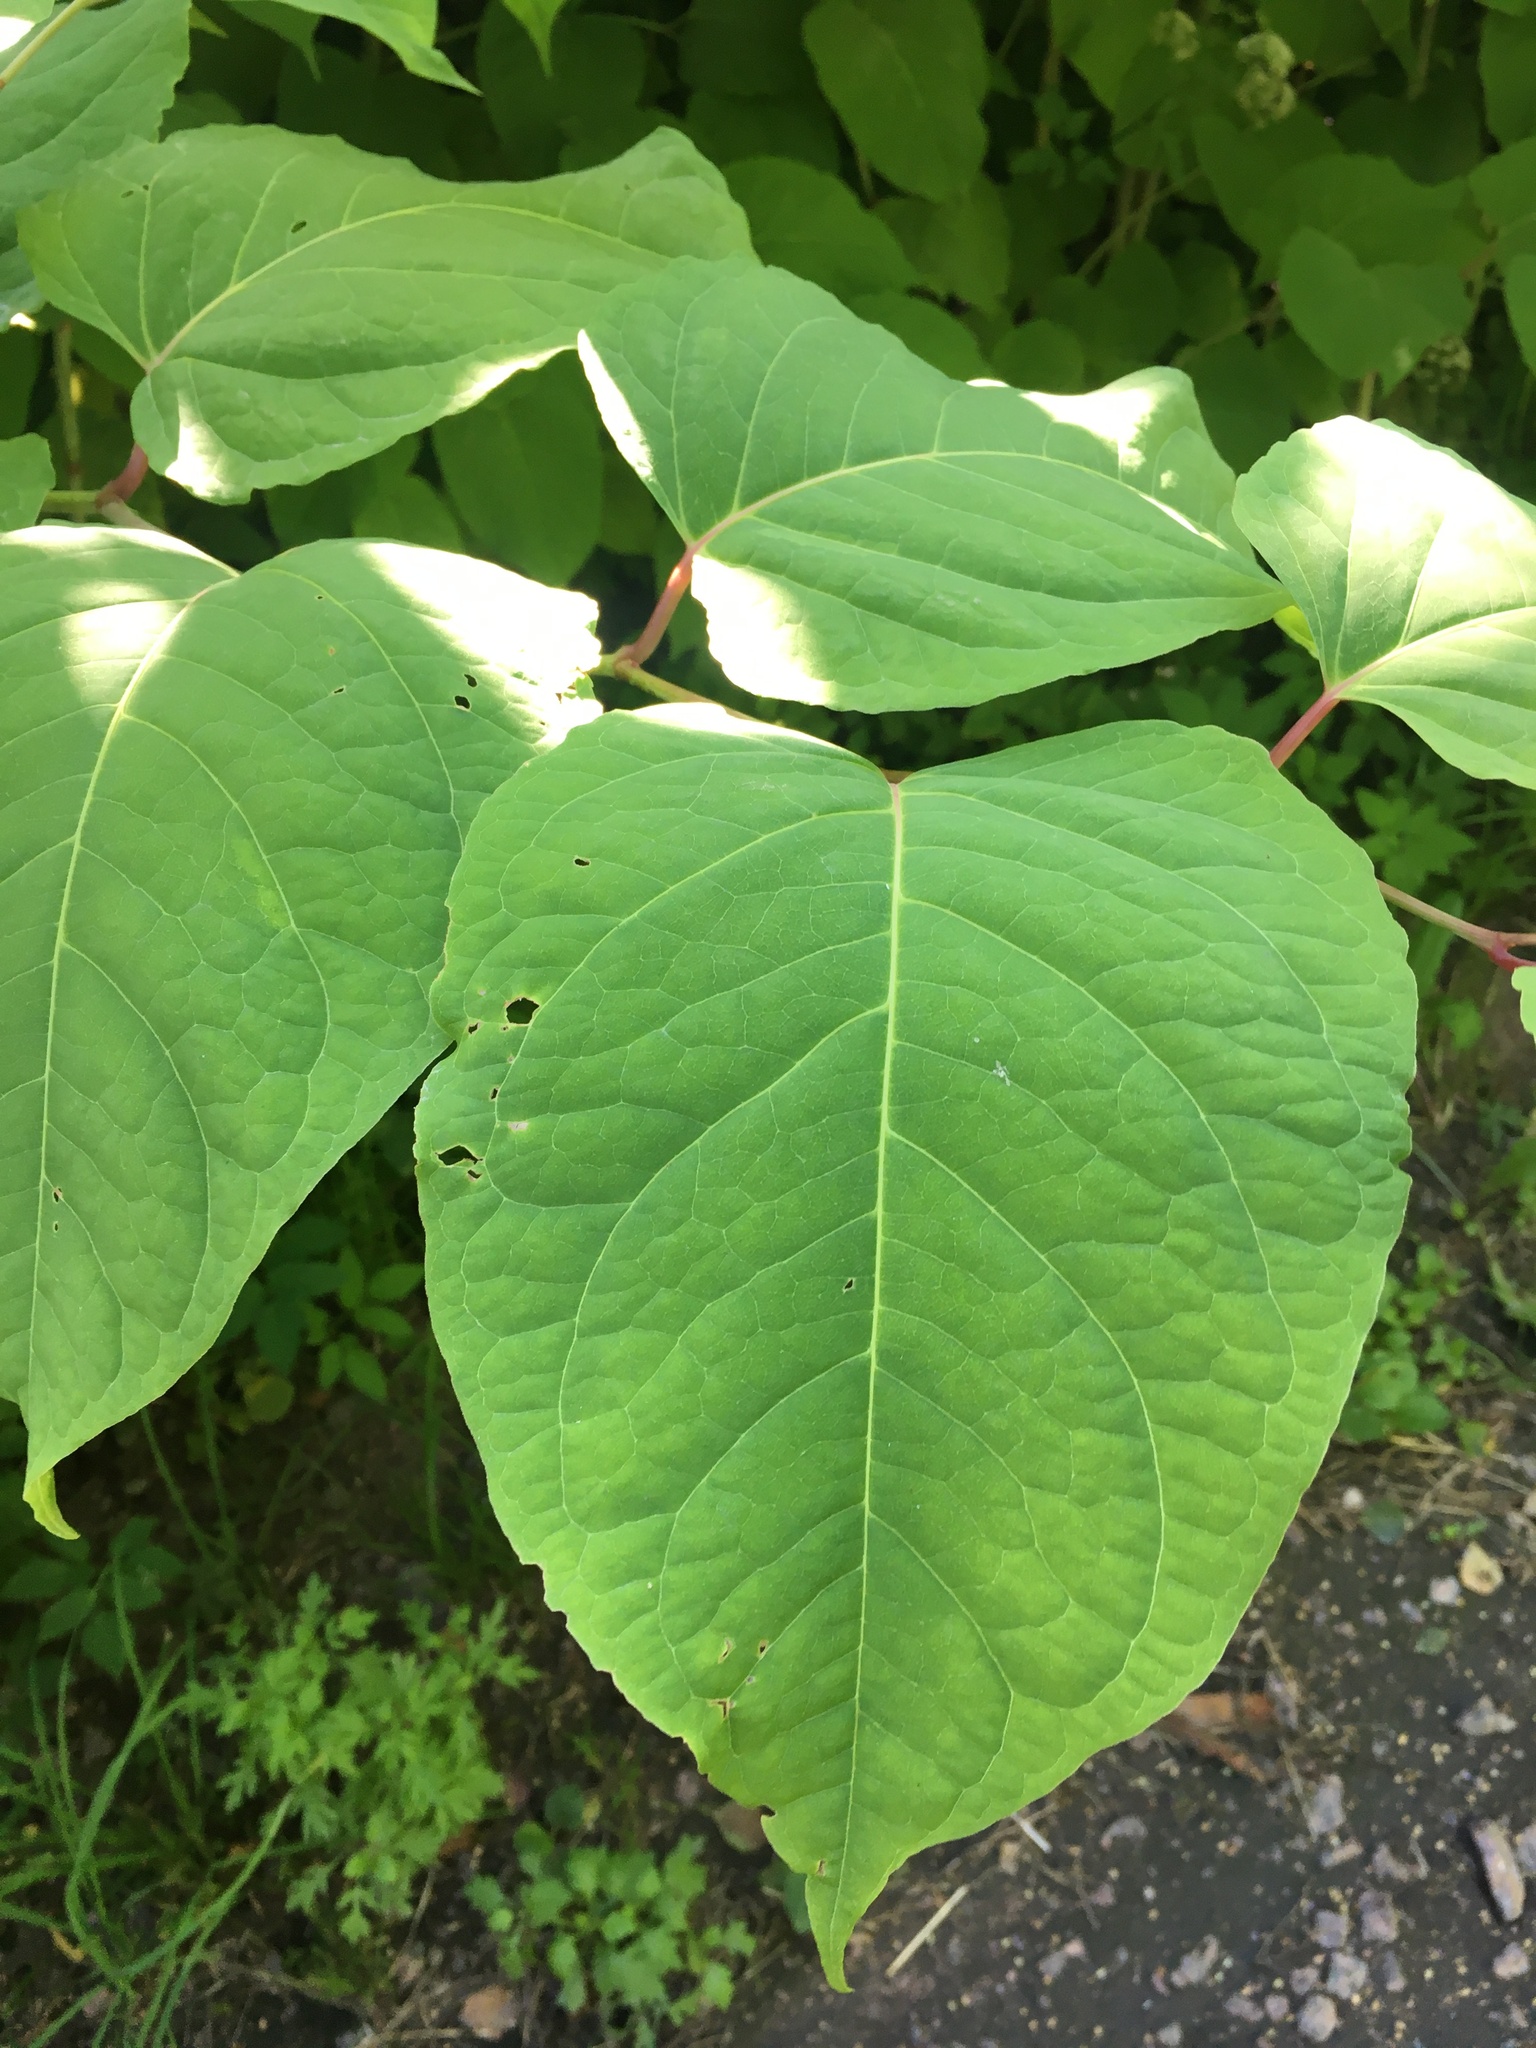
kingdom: Plantae
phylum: Tracheophyta
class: Magnoliopsida
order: Caryophyllales
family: Polygonaceae
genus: Reynoutria
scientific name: Reynoutria bohemica
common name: Bohemian knotweed
